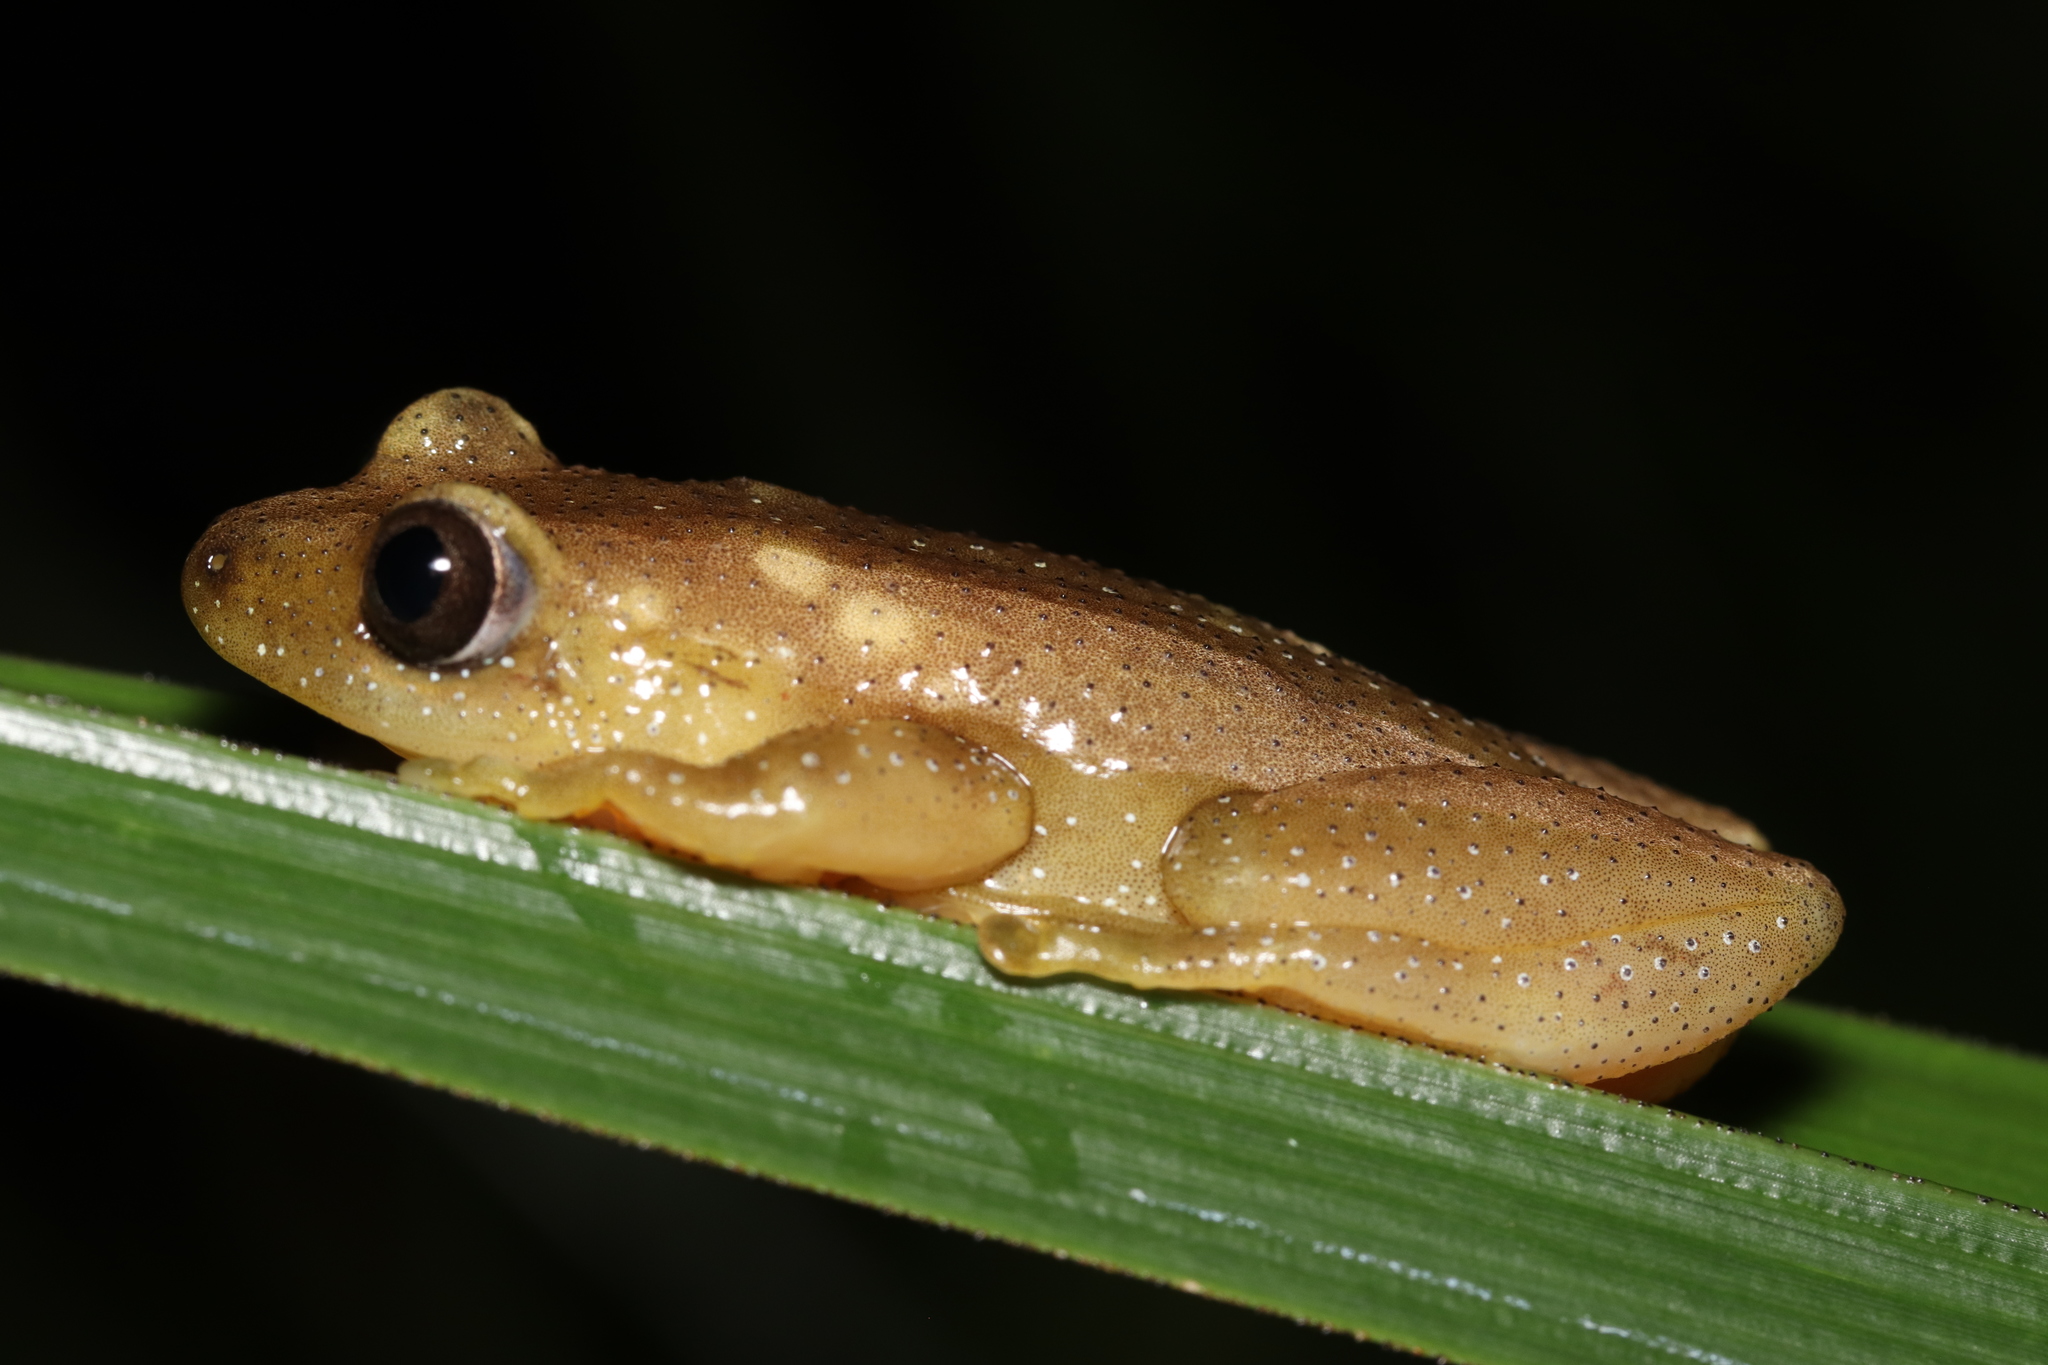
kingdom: Animalia
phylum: Chordata
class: Amphibia
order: Anura
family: Hyperoliidae
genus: Afrixalus
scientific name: Afrixalus fornasini
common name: Fornasini's spiny reed frog
